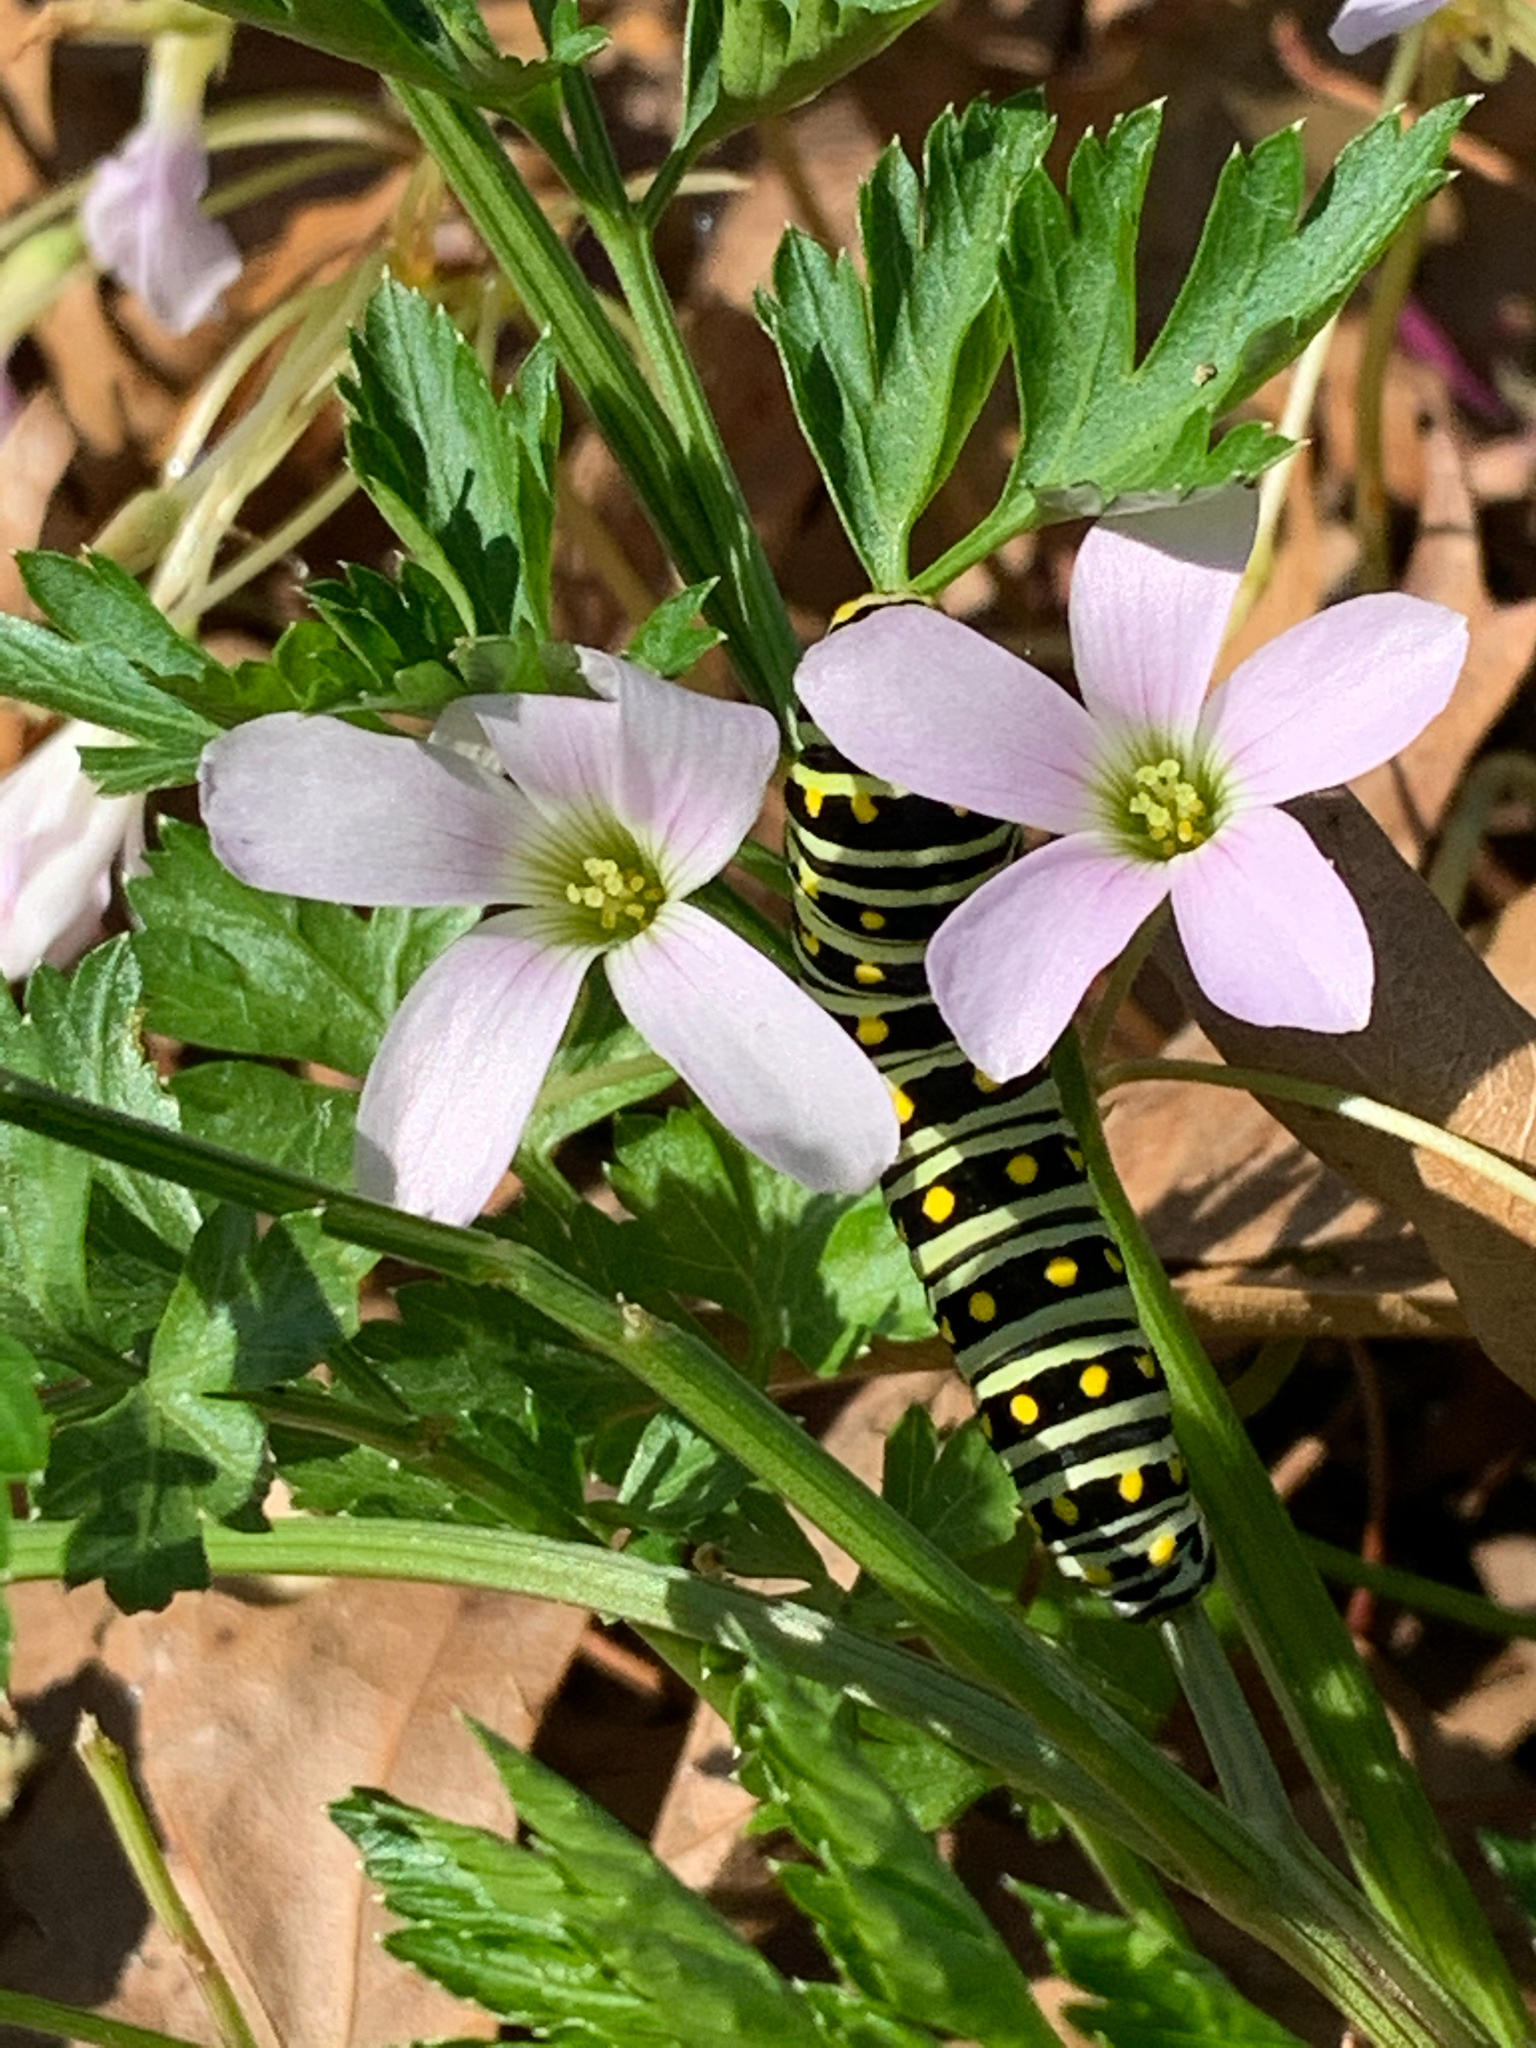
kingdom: Animalia
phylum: Arthropoda
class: Insecta
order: Lepidoptera
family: Papilionidae
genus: Papilio
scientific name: Papilio polyxenes
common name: Black swallowtail
